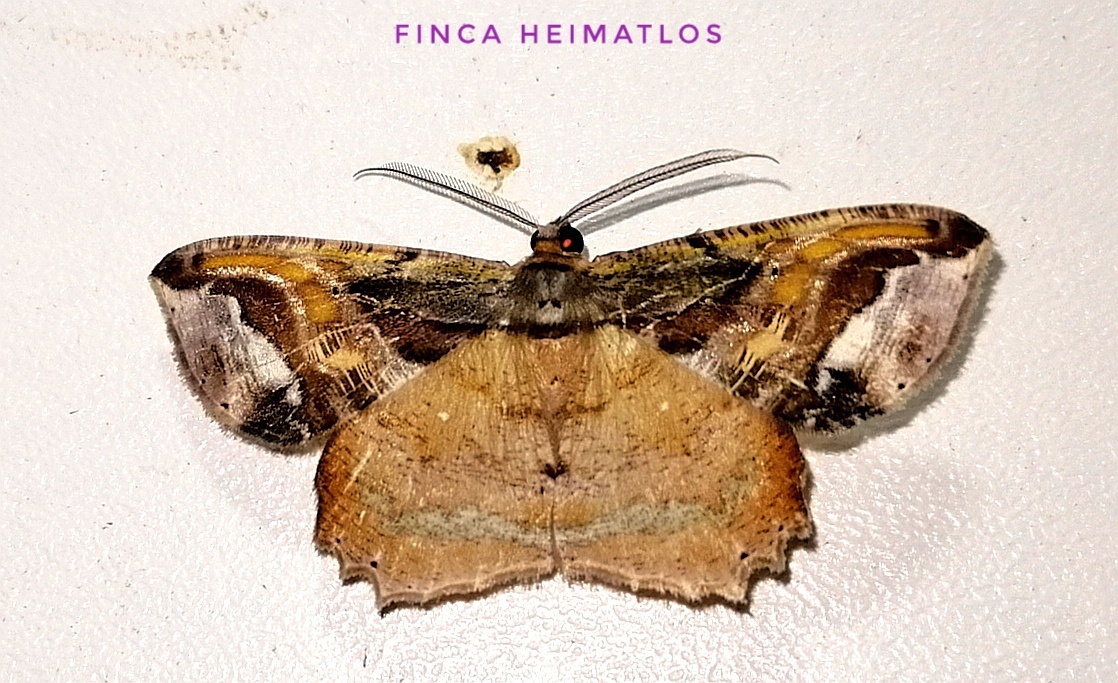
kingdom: Animalia
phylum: Arthropoda
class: Insecta
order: Lepidoptera
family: Geometridae
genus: Thysanopyga
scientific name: Thysanopyga
